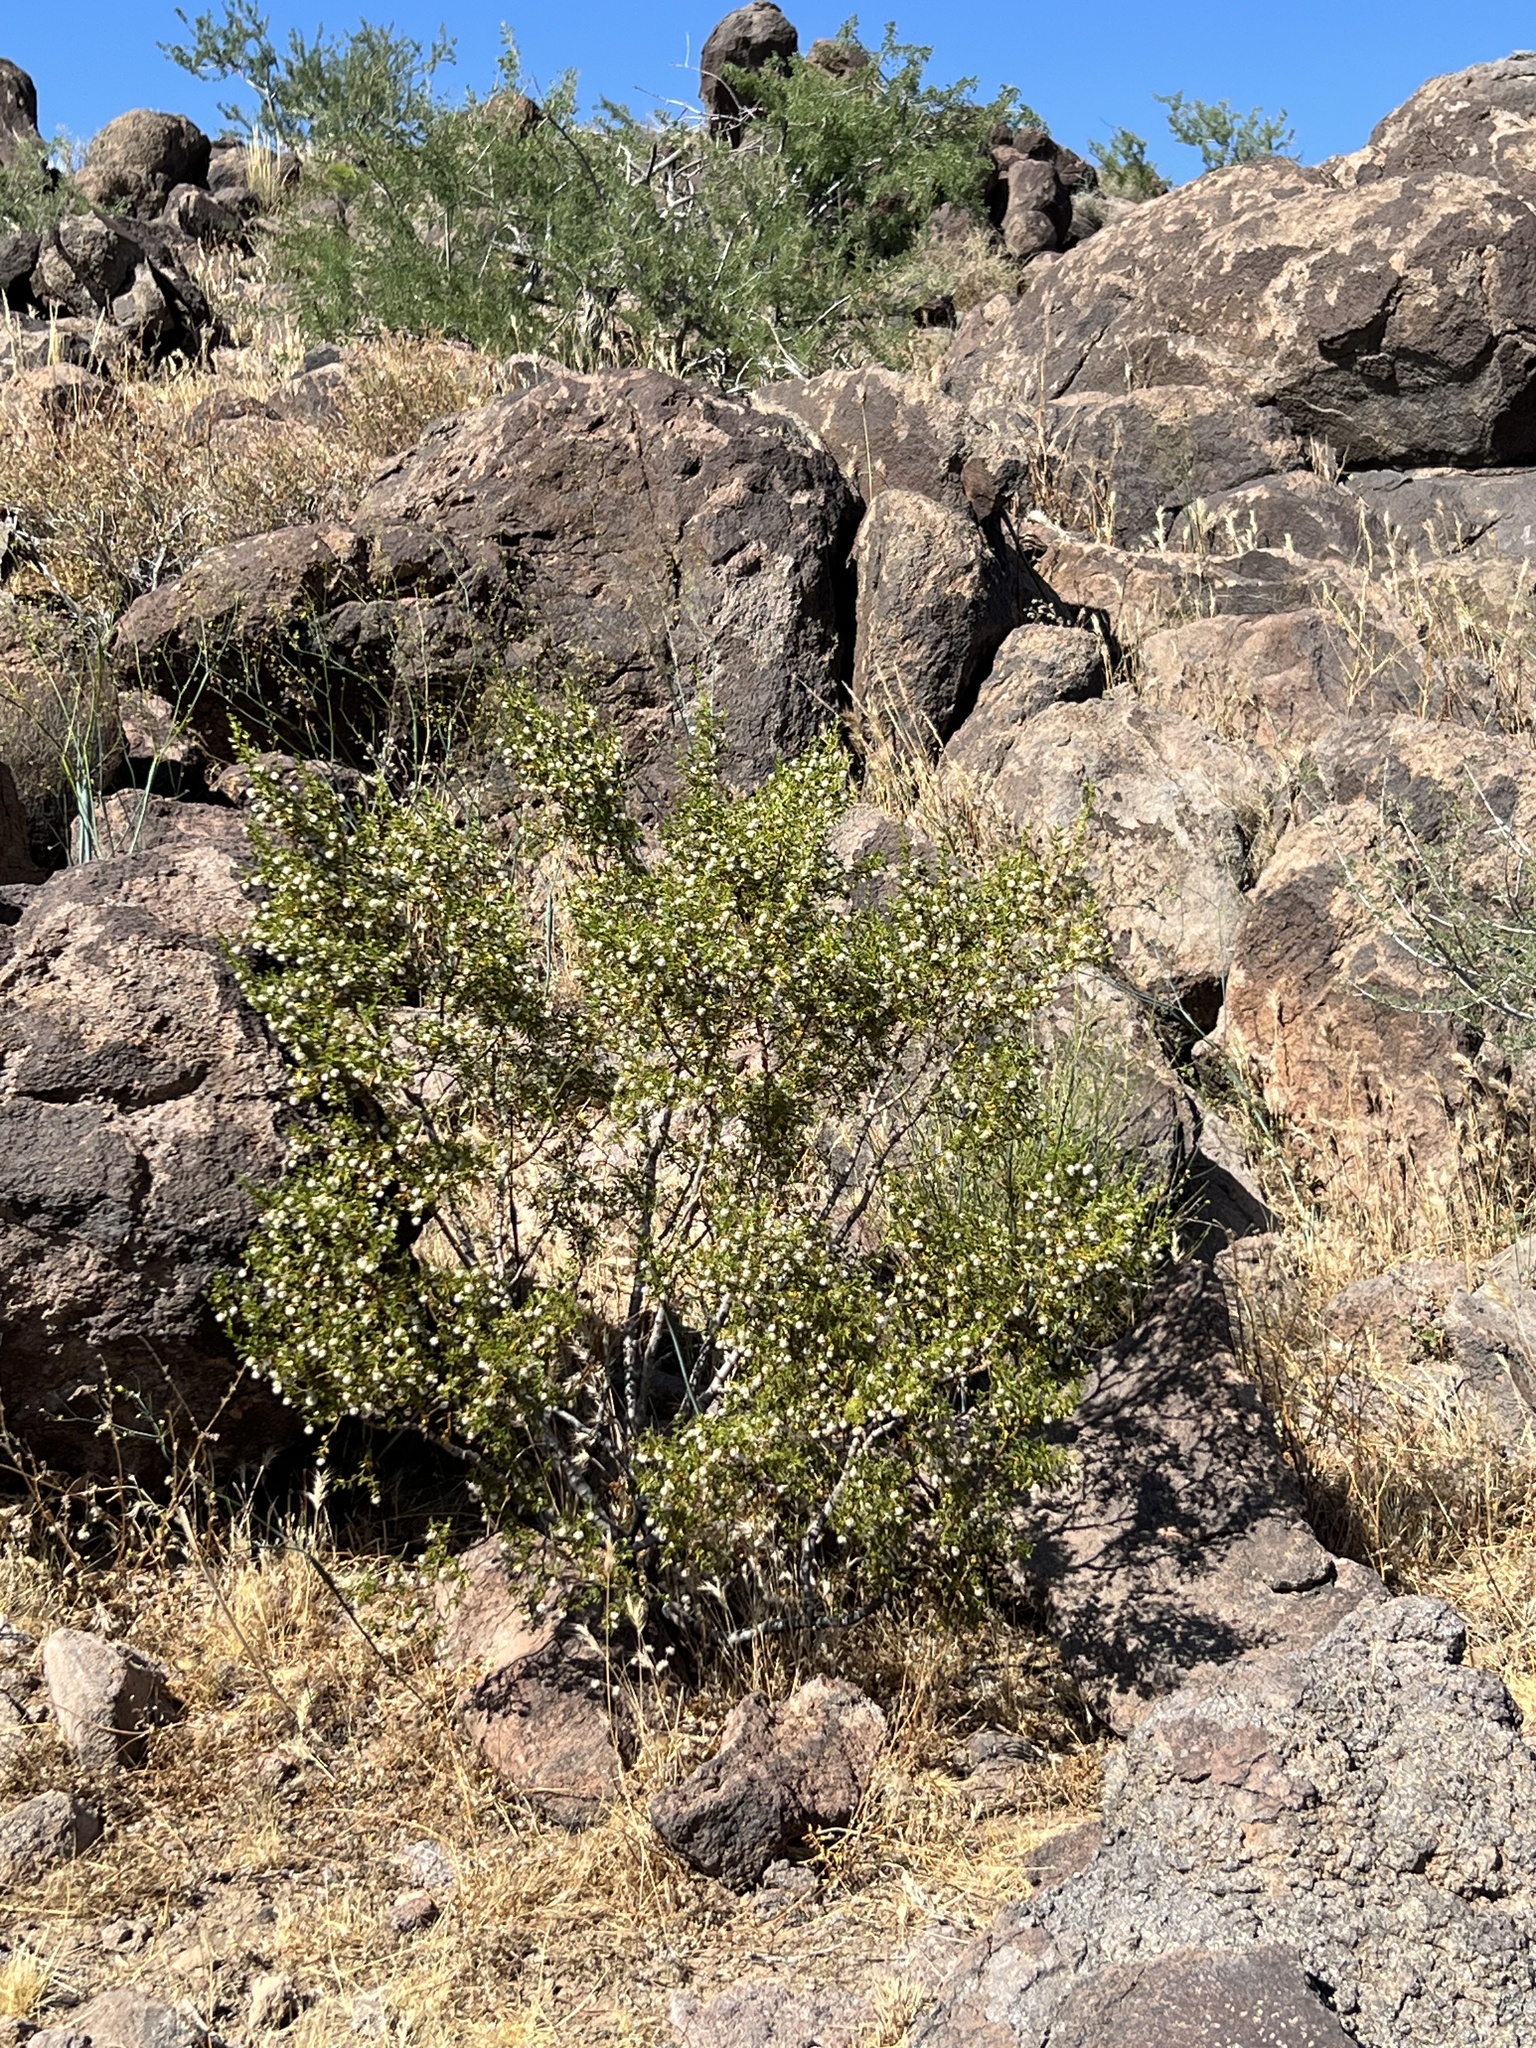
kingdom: Plantae
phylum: Tracheophyta
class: Magnoliopsida
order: Zygophyllales
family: Zygophyllaceae
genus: Larrea
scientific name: Larrea tridentata
